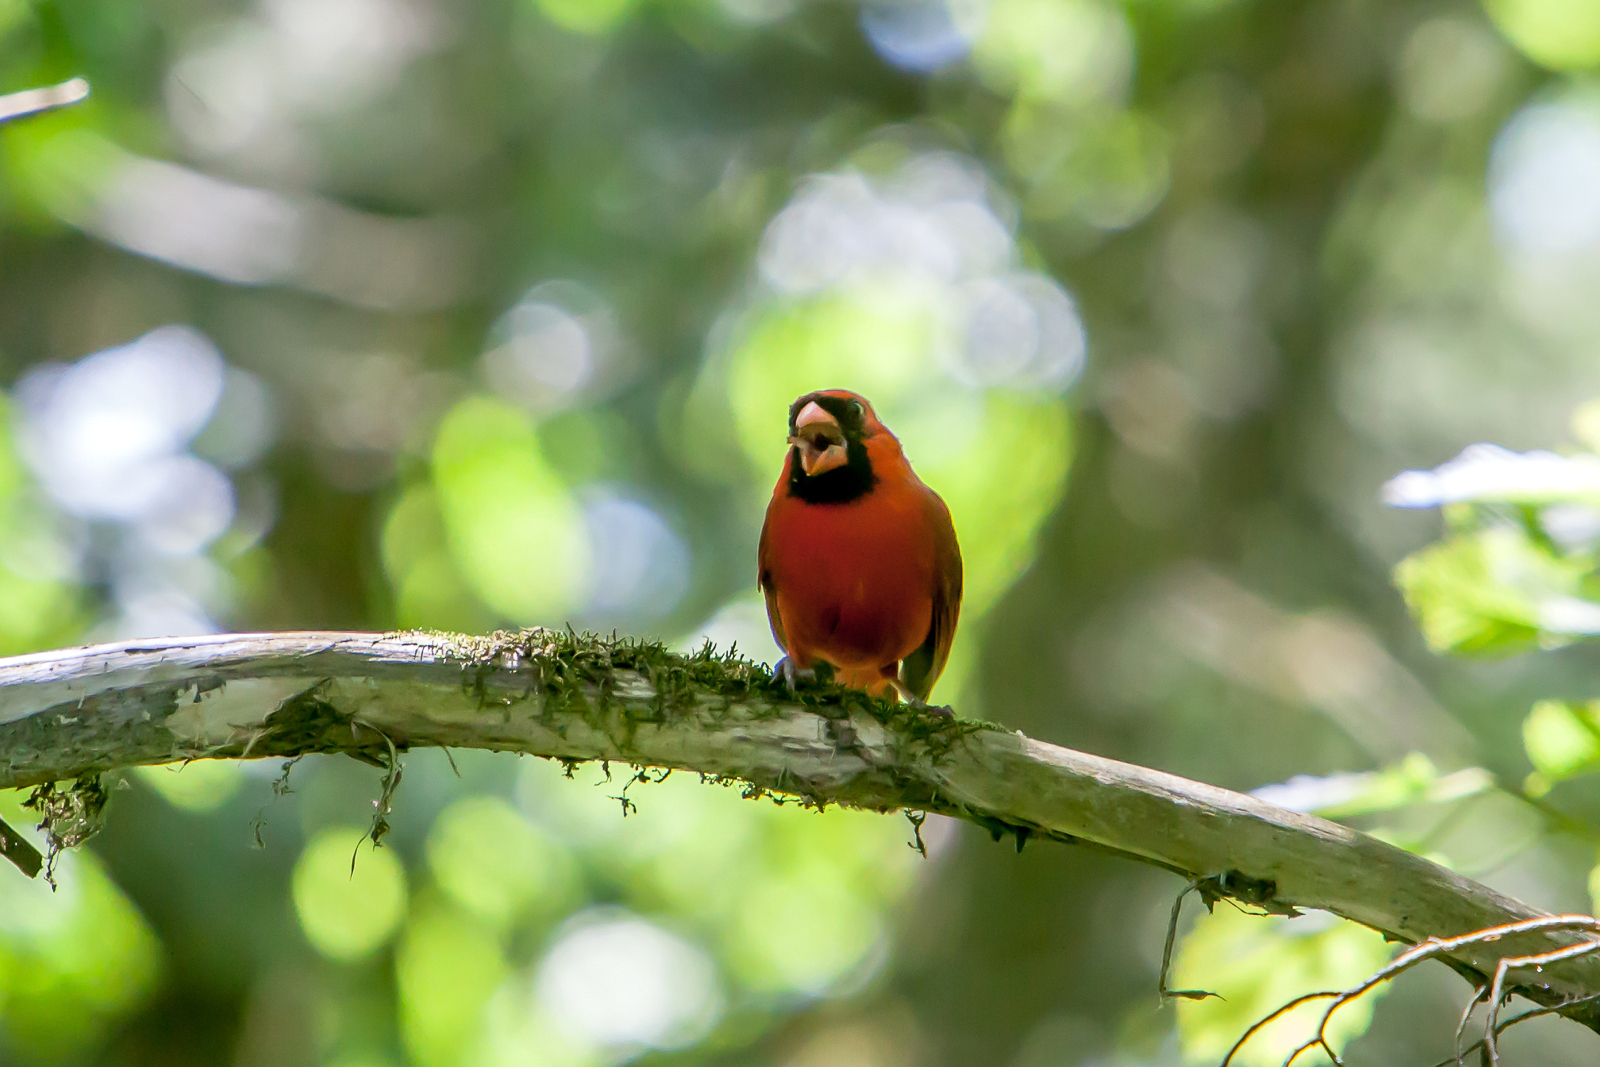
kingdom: Animalia
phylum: Chordata
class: Aves
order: Passeriformes
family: Cardinalidae
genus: Cardinalis
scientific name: Cardinalis cardinalis
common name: Northern cardinal
